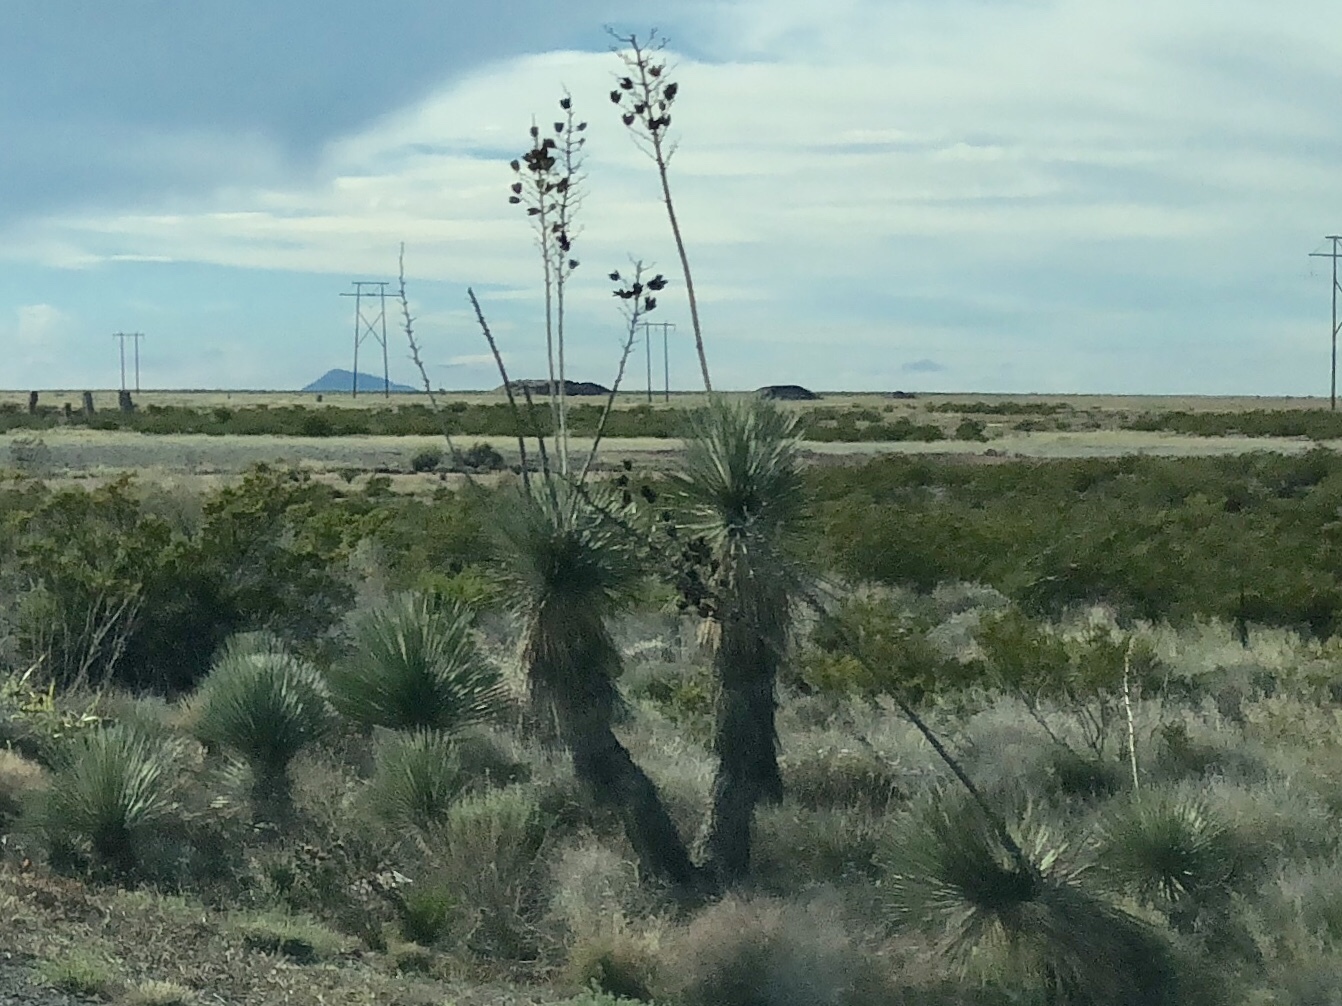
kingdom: Plantae
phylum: Tracheophyta
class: Liliopsida
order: Asparagales
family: Asparagaceae
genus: Yucca
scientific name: Yucca elata
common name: Palmella
